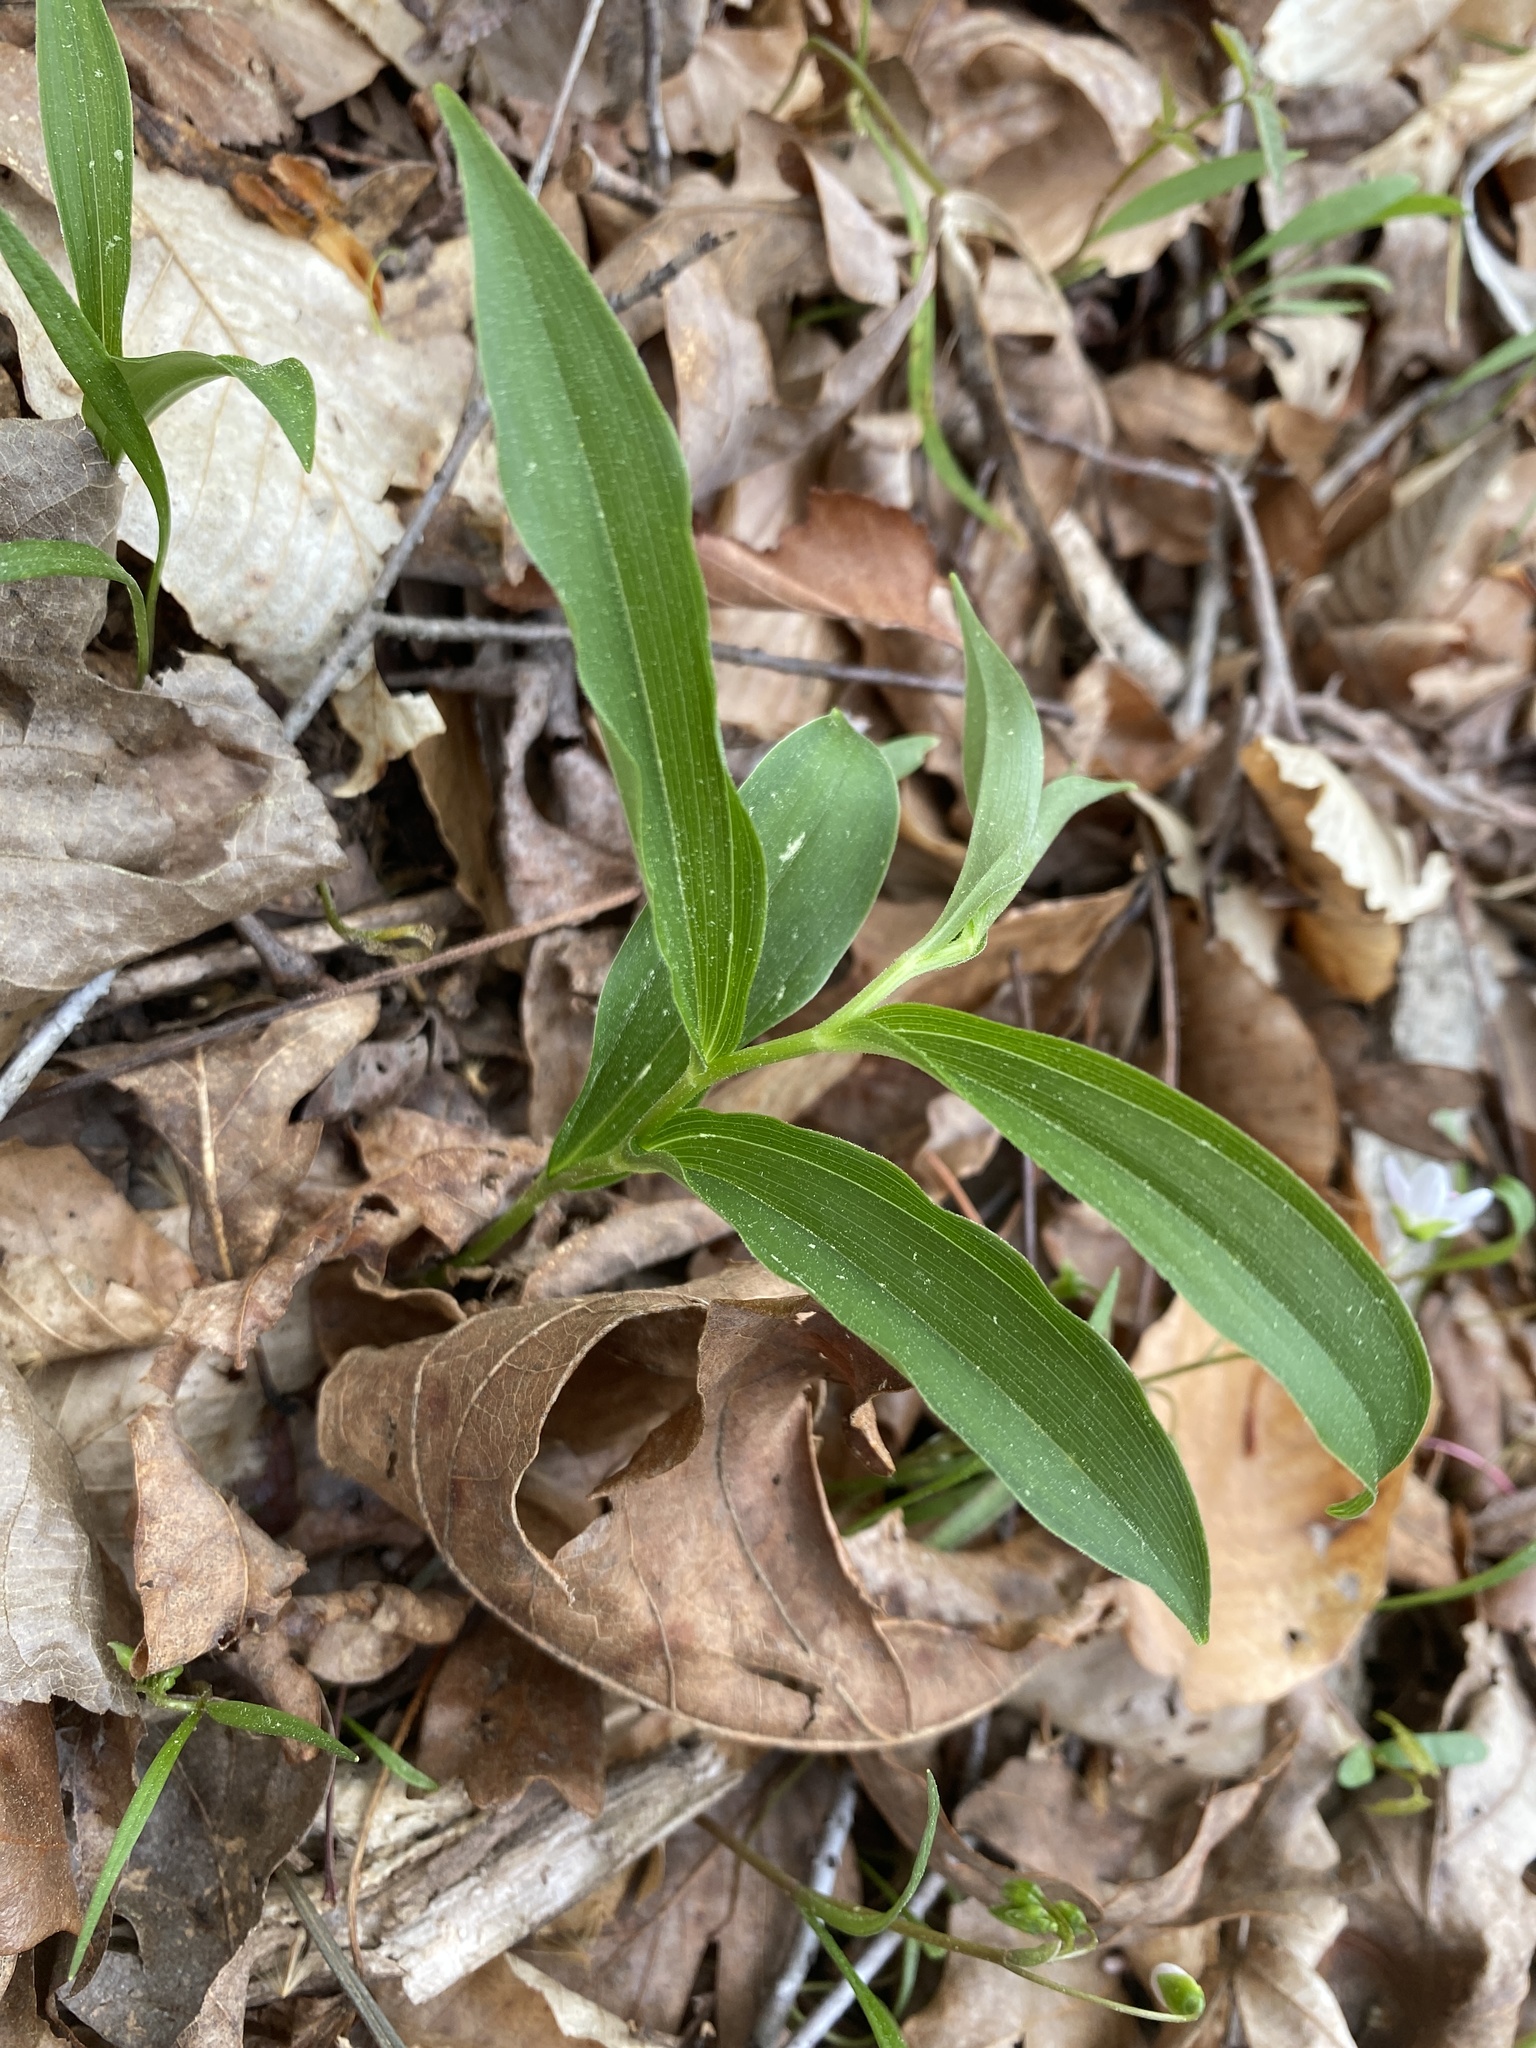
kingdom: Plantae
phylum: Tracheophyta
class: Liliopsida
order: Asparagales
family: Asparagaceae
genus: Maianthemum
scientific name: Maianthemum racemosum
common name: False spikenard
